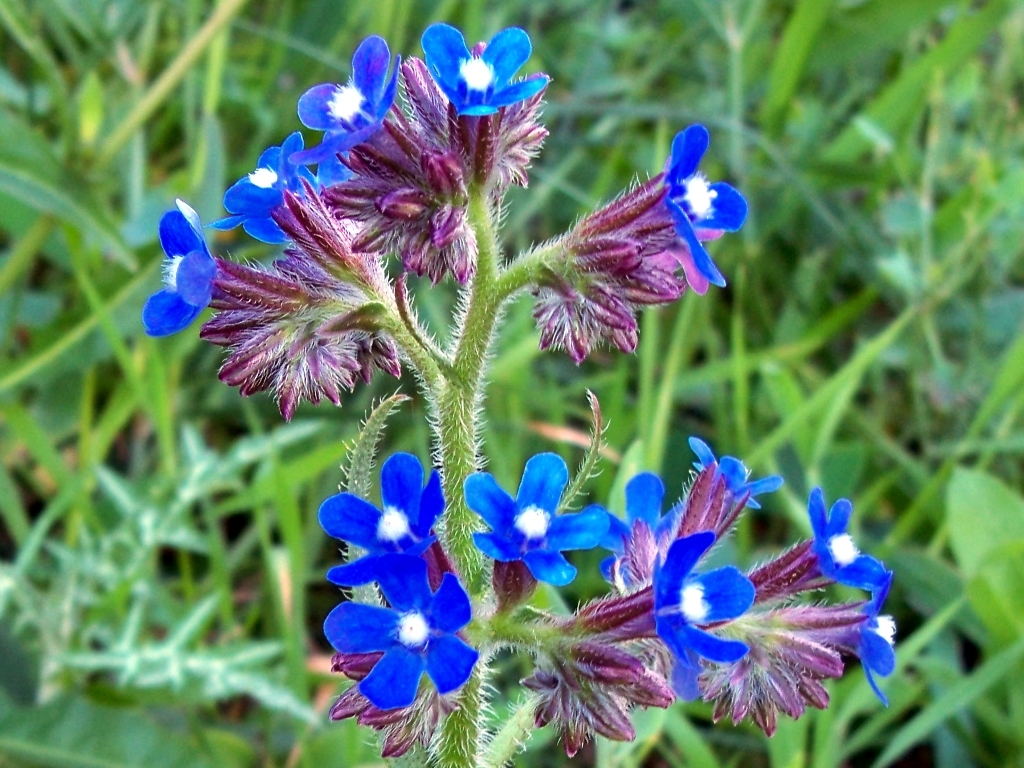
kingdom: Plantae
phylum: Tracheophyta
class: Magnoliopsida
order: Boraginales
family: Boraginaceae
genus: Anchusa
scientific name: Anchusa azurea
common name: Garden anchusa
